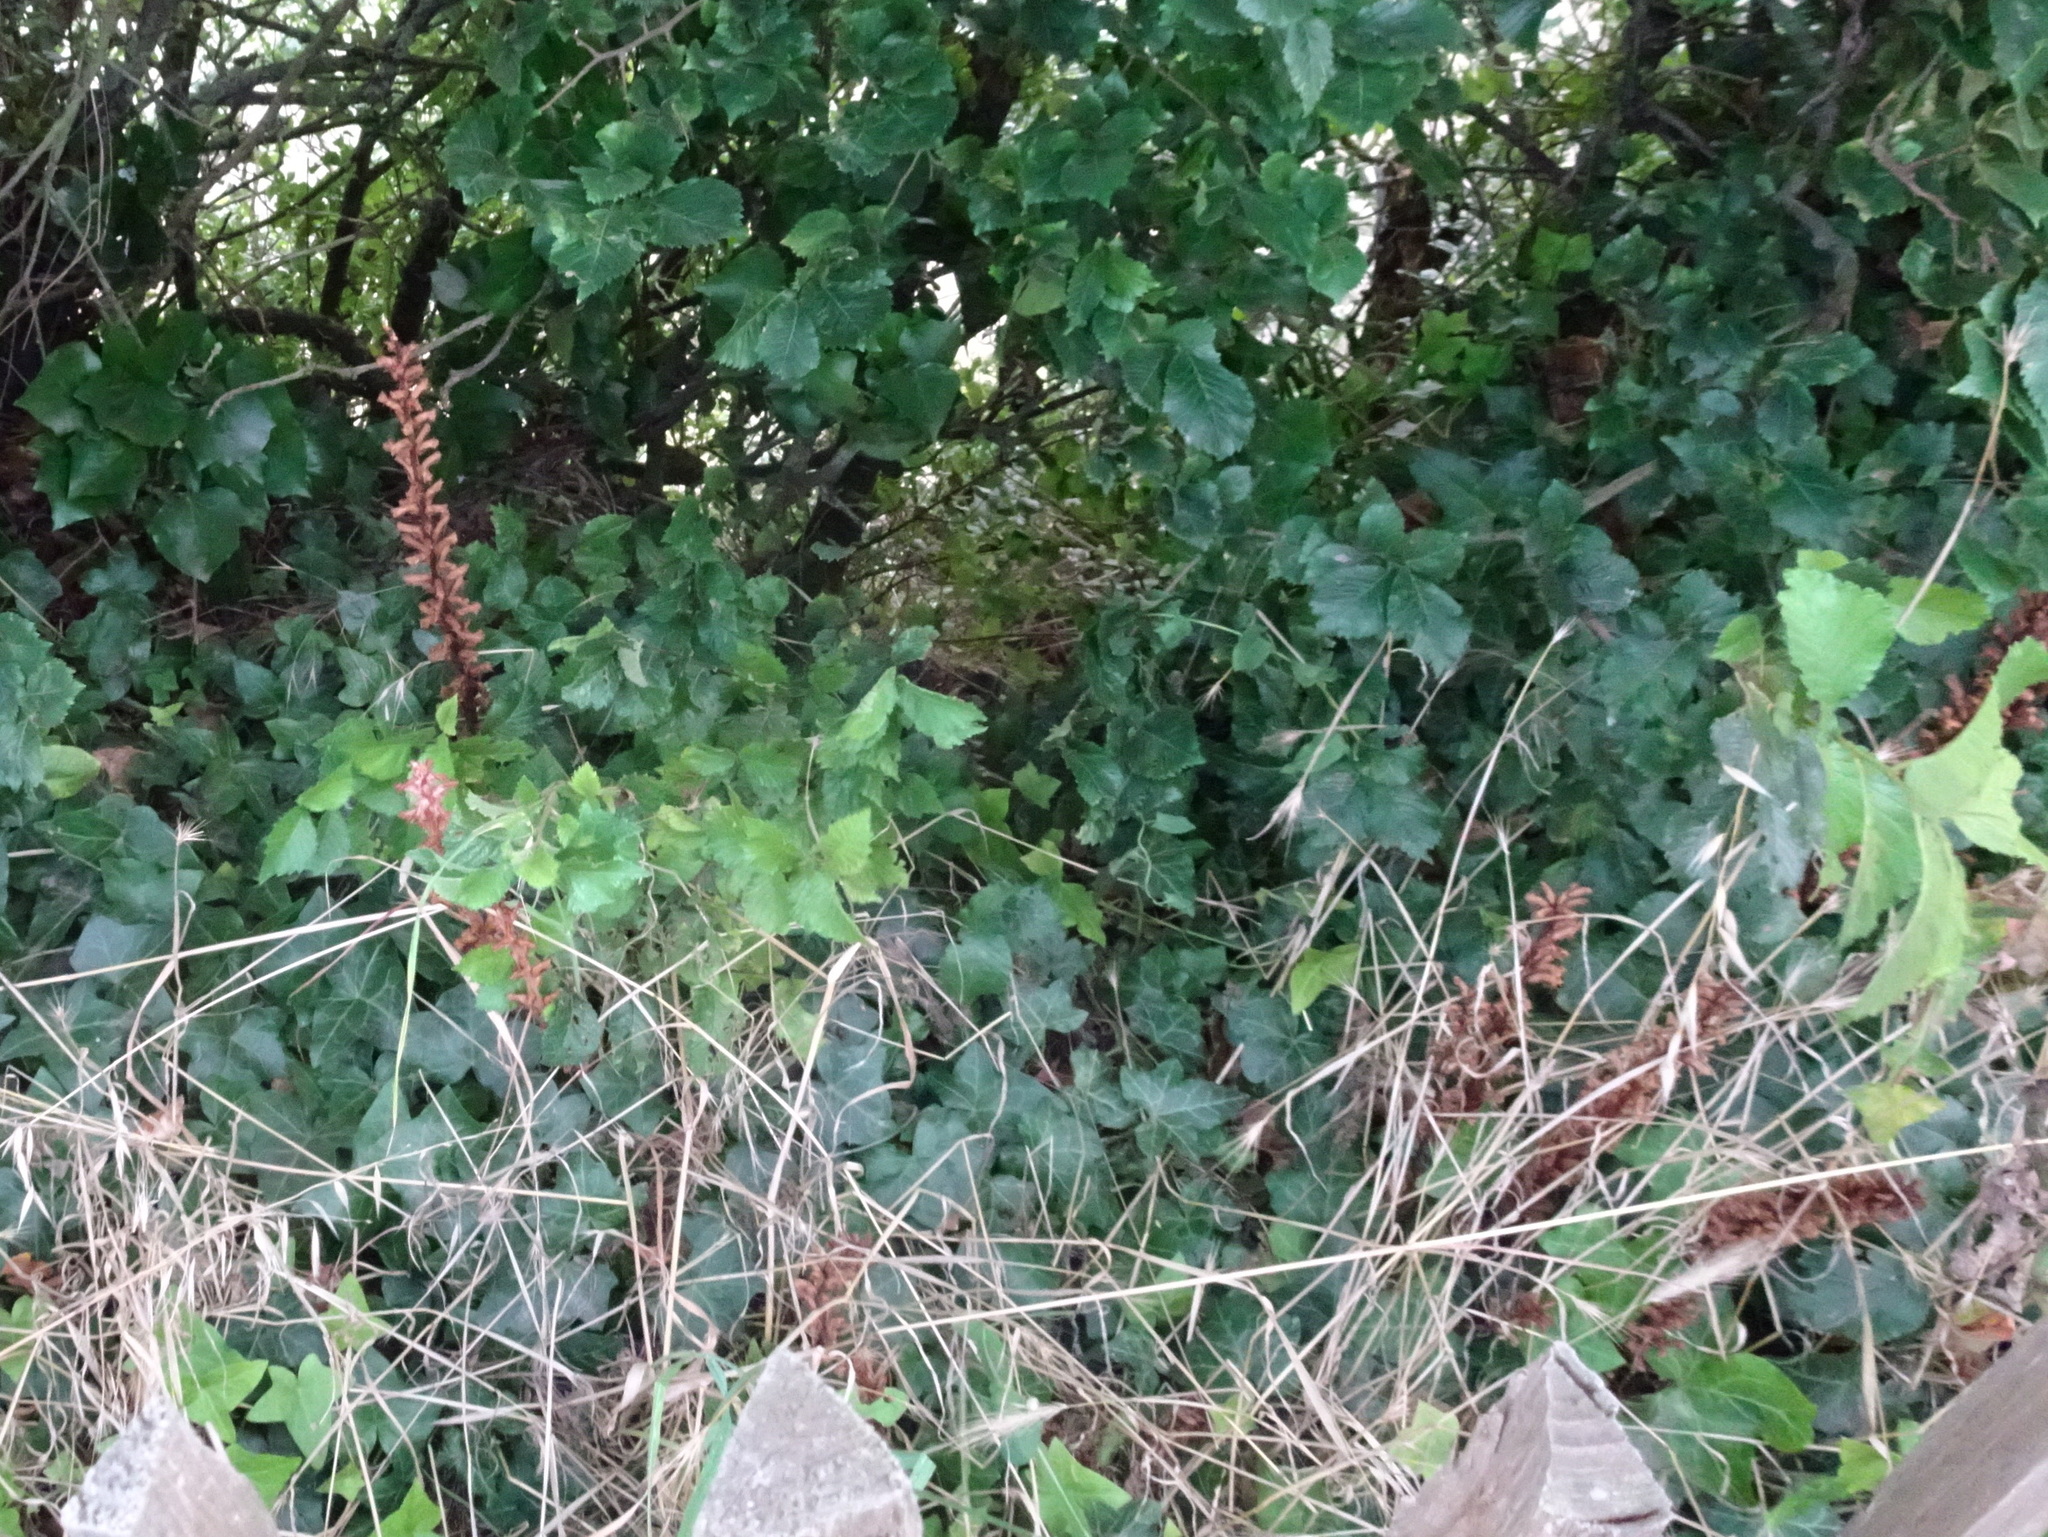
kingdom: Plantae
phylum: Tracheophyta
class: Magnoliopsida
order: Lamiales
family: Orobanchaceae
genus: Orobanche
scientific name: Orobanche hederae
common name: Ivy broomrape
